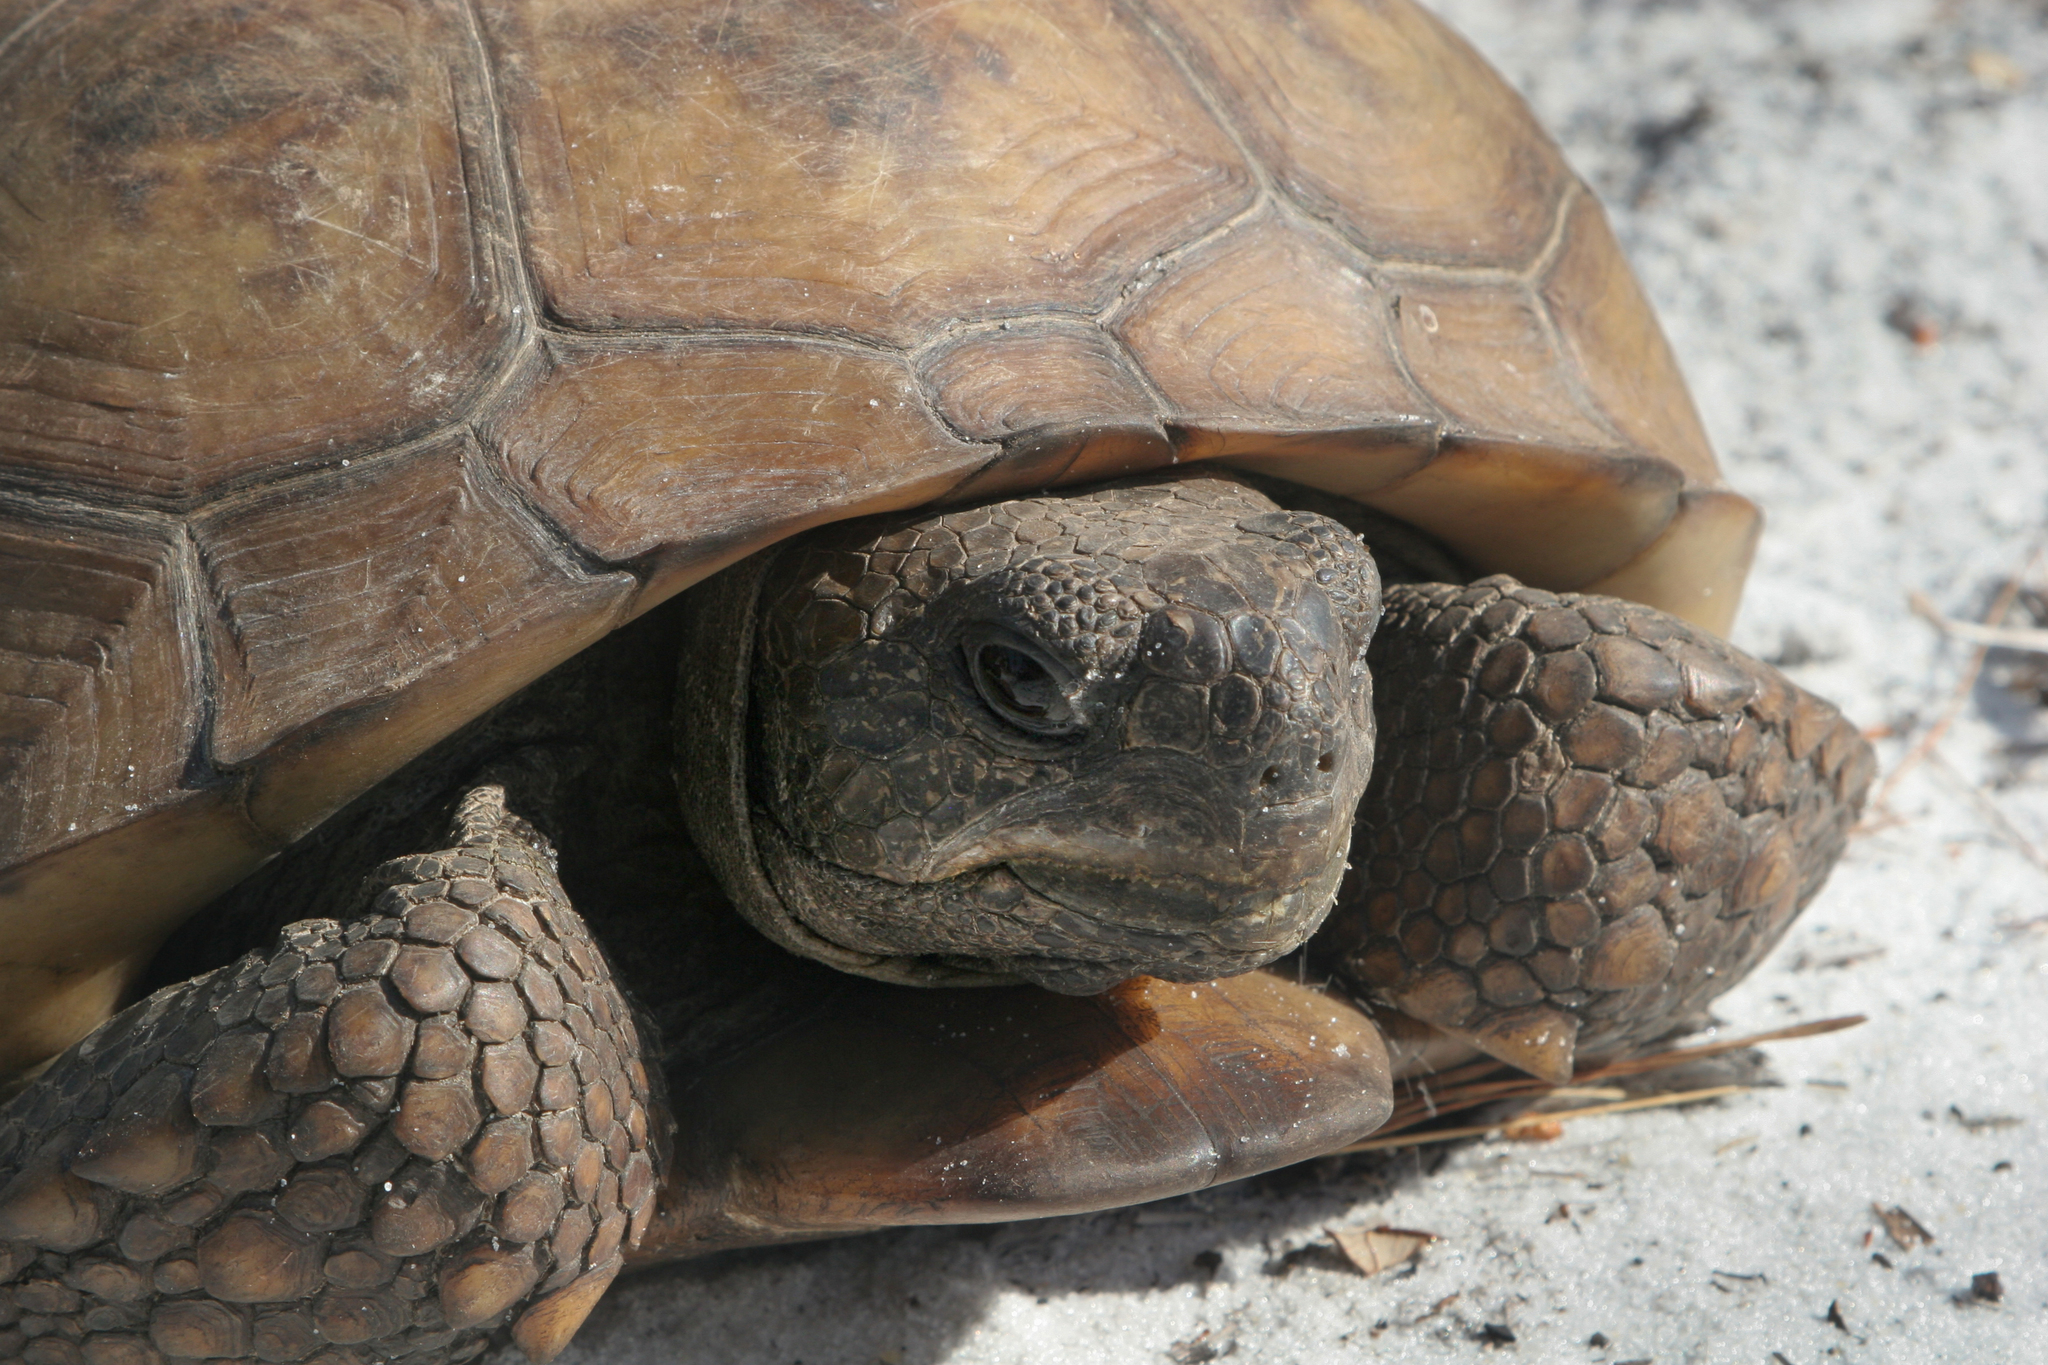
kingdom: Animalia
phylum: Chordata
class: Testudines
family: Testudinidae
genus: Gopherus
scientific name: Gopherus polyphemus
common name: Florida gopher tortoise
